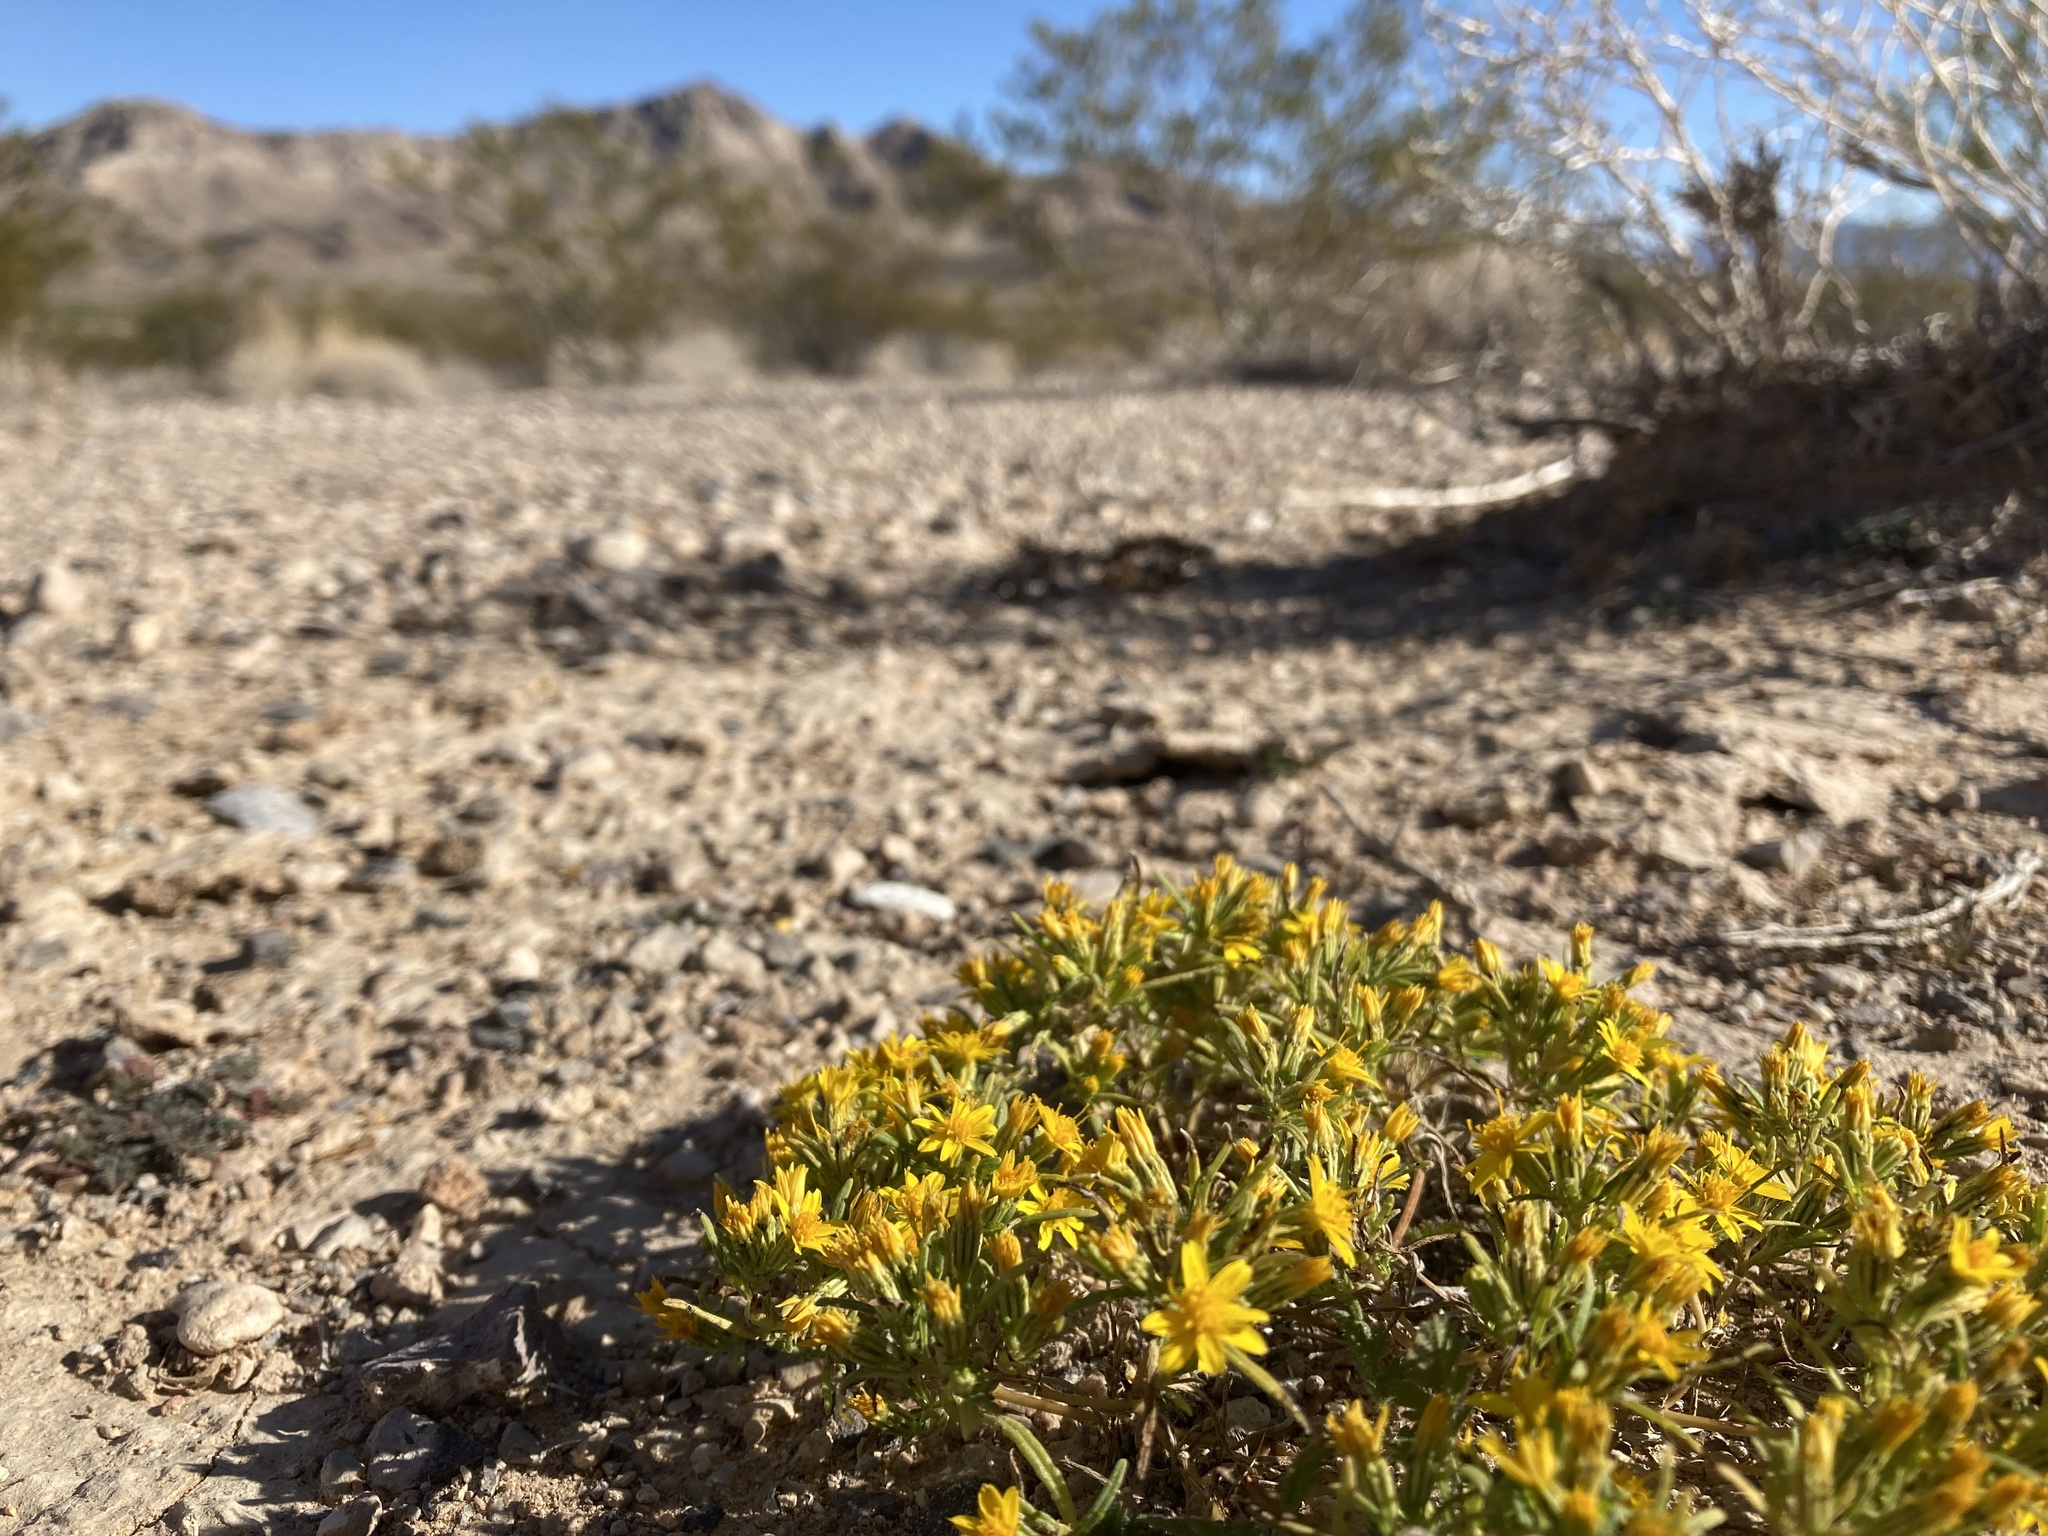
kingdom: Plantae
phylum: Tracheophyta
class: Magnoliopsida
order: Asterales
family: Asteraceae
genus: Pectis
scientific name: Pectis papposa
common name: Many-bristle chinchweed
